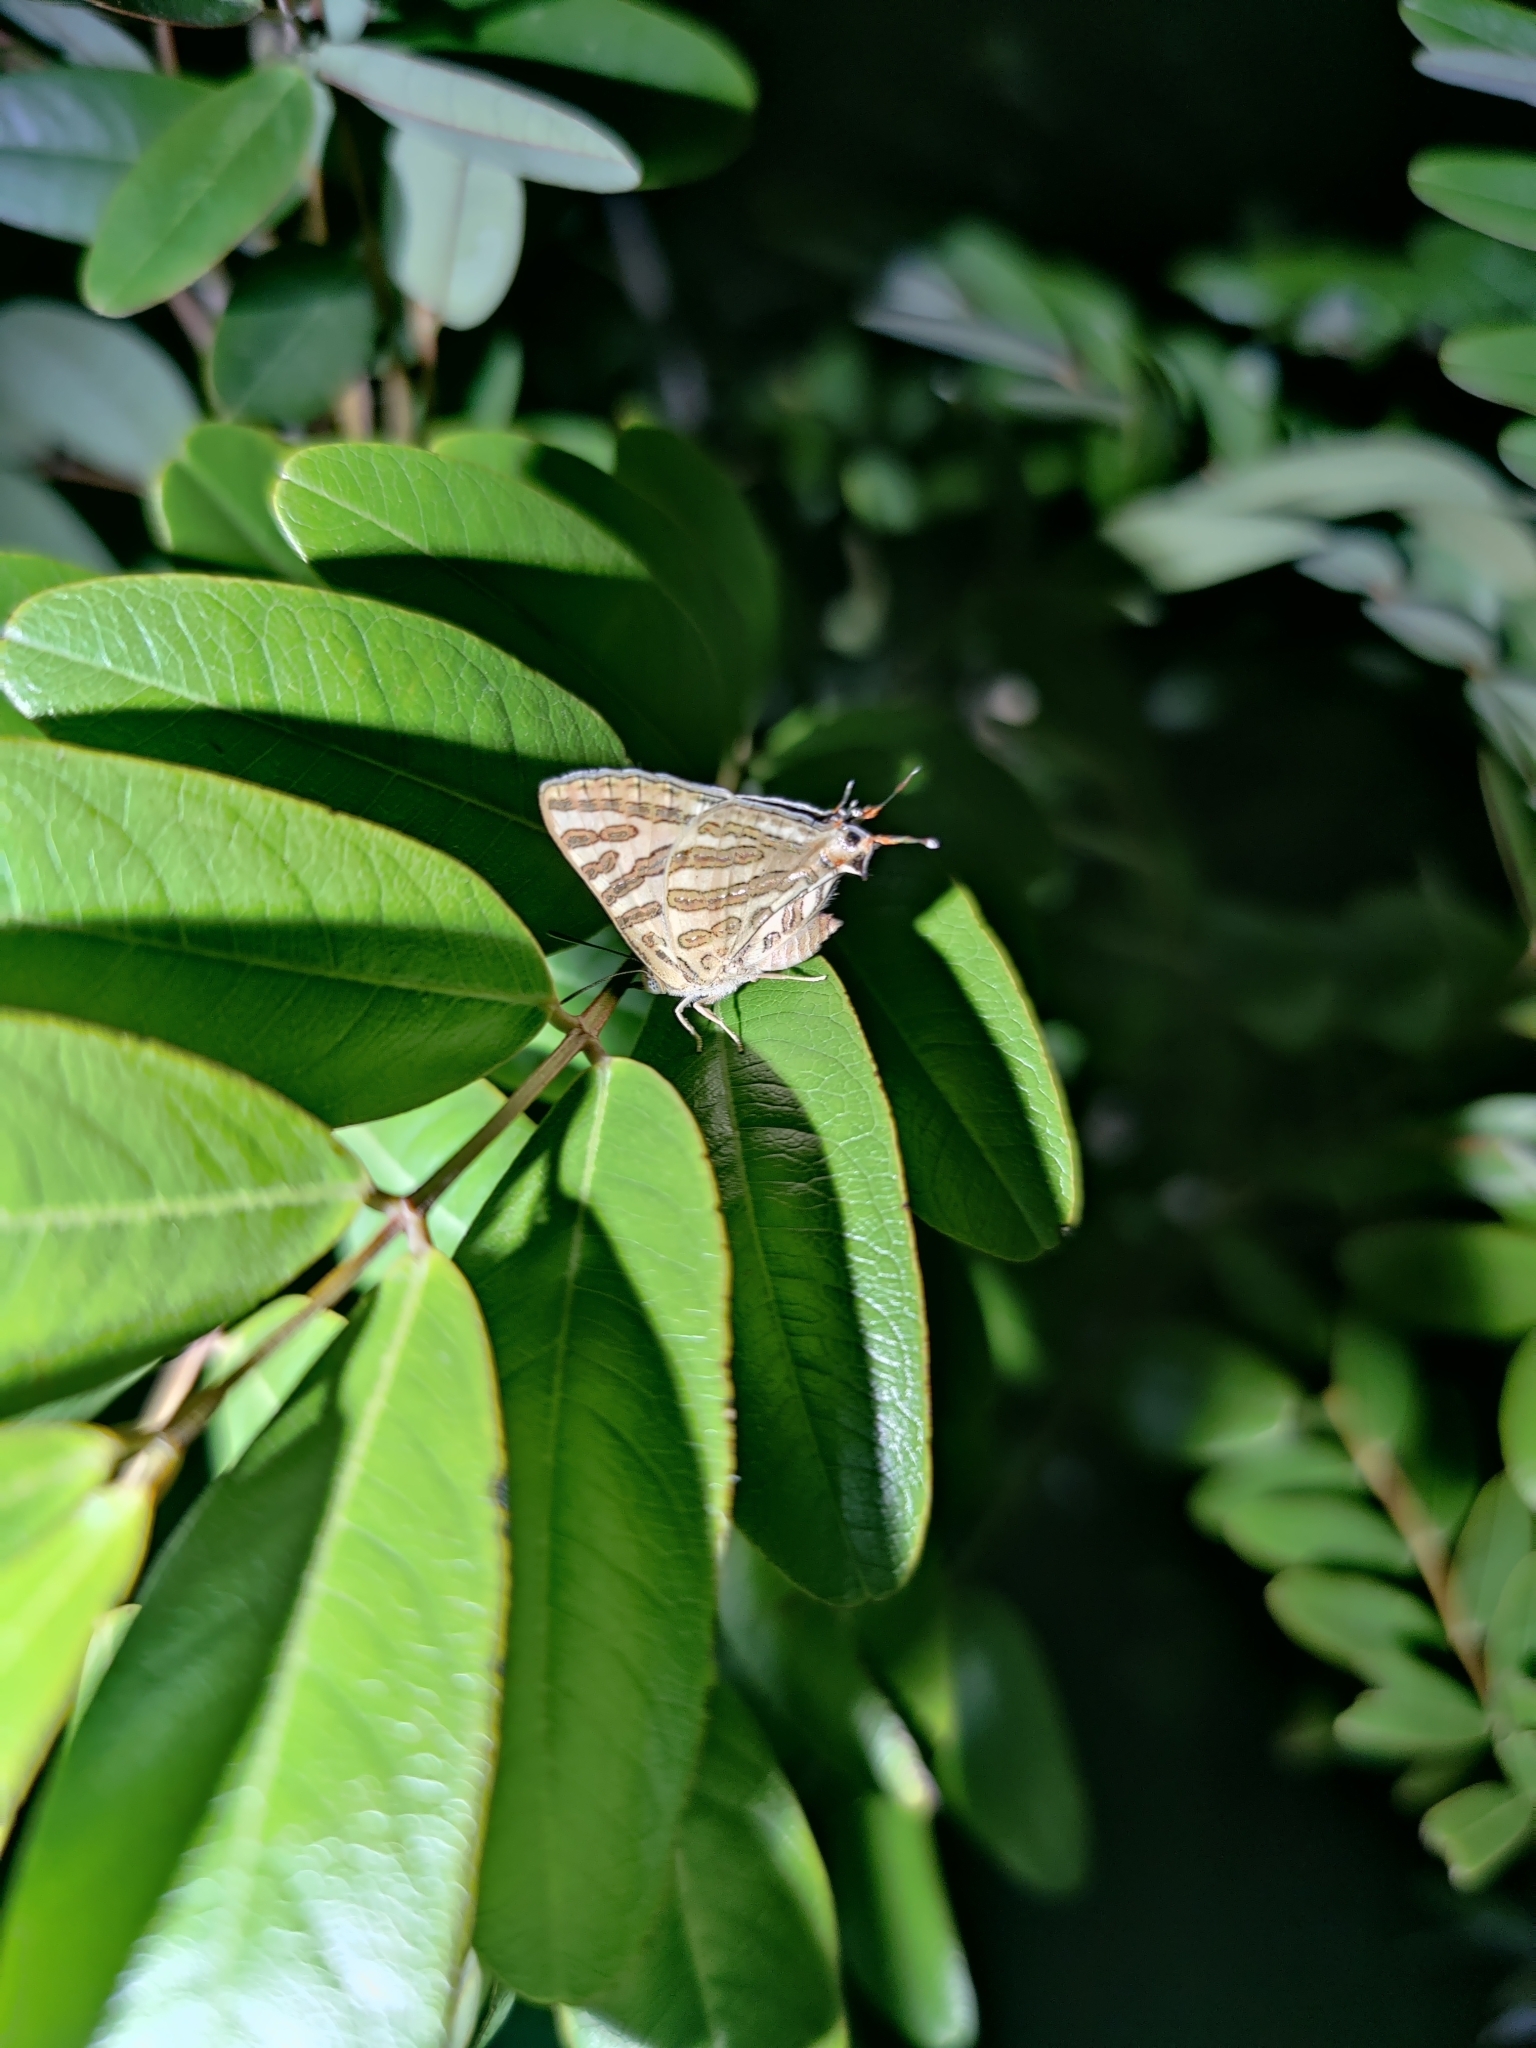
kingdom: Animalia
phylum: Arthropoda
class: Insecta
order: Lepidoptera
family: Lycaenidae
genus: Cigaritis
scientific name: Cigaritis
